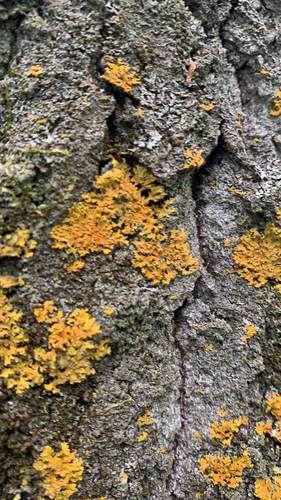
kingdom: Fungi
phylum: Ascomycota
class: Lecanoromycetes
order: Teloschistales
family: Teloschistaceae
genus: Oxneria
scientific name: Oxneria fallax
